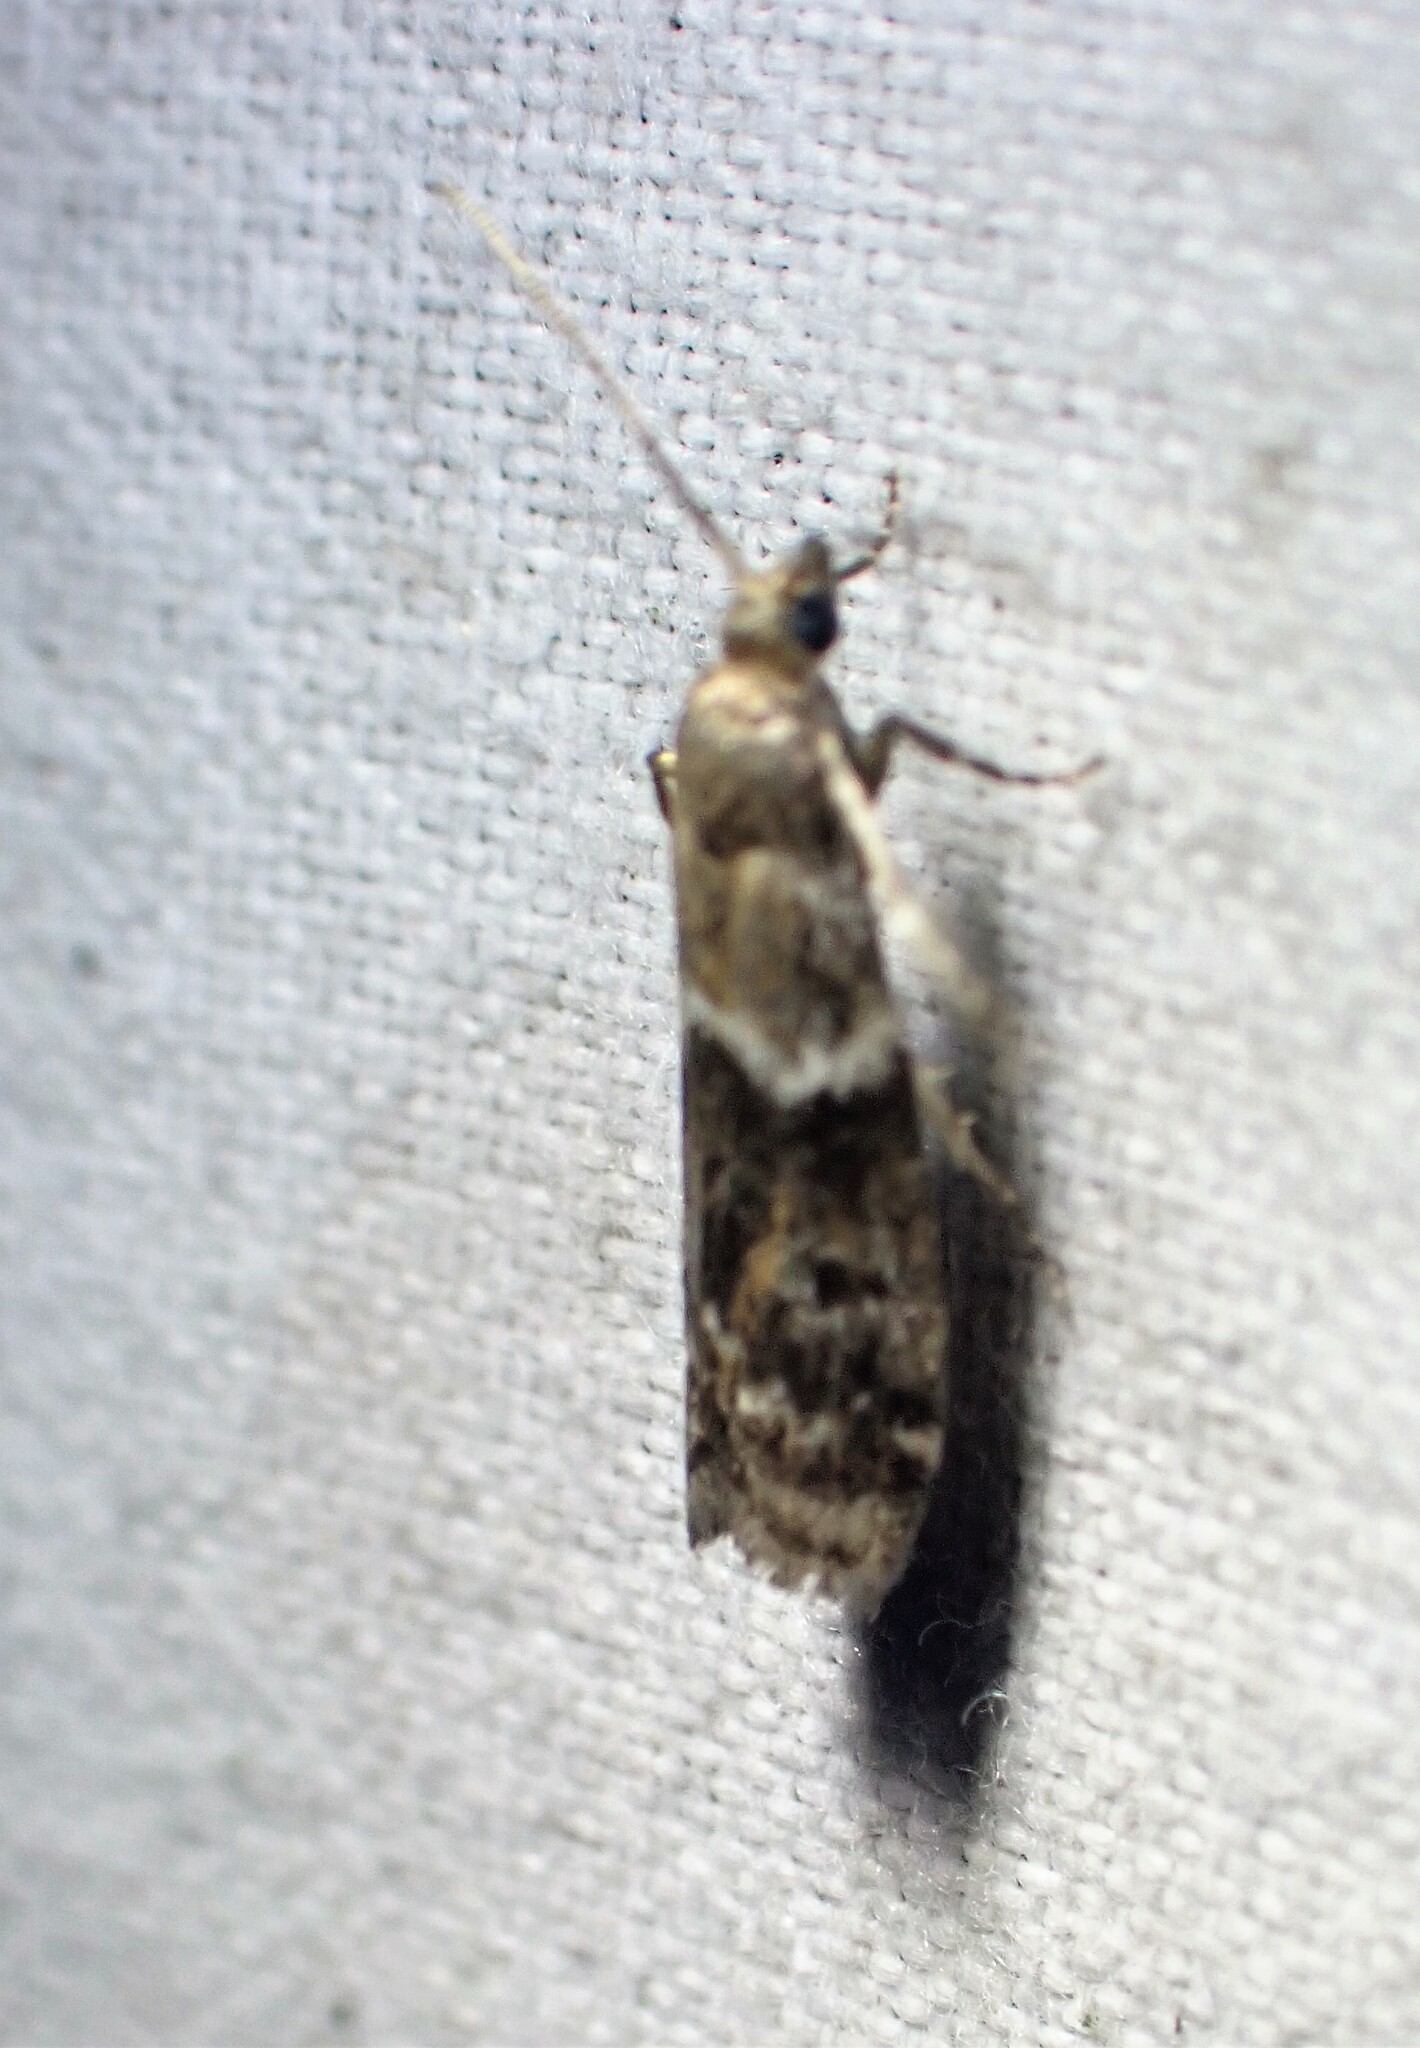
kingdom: Animalia
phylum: Arthropoda
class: Insecta
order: Lepidoptera
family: Pyralidae
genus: Vitula
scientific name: Vitula broweri
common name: Brower's vitula moth
